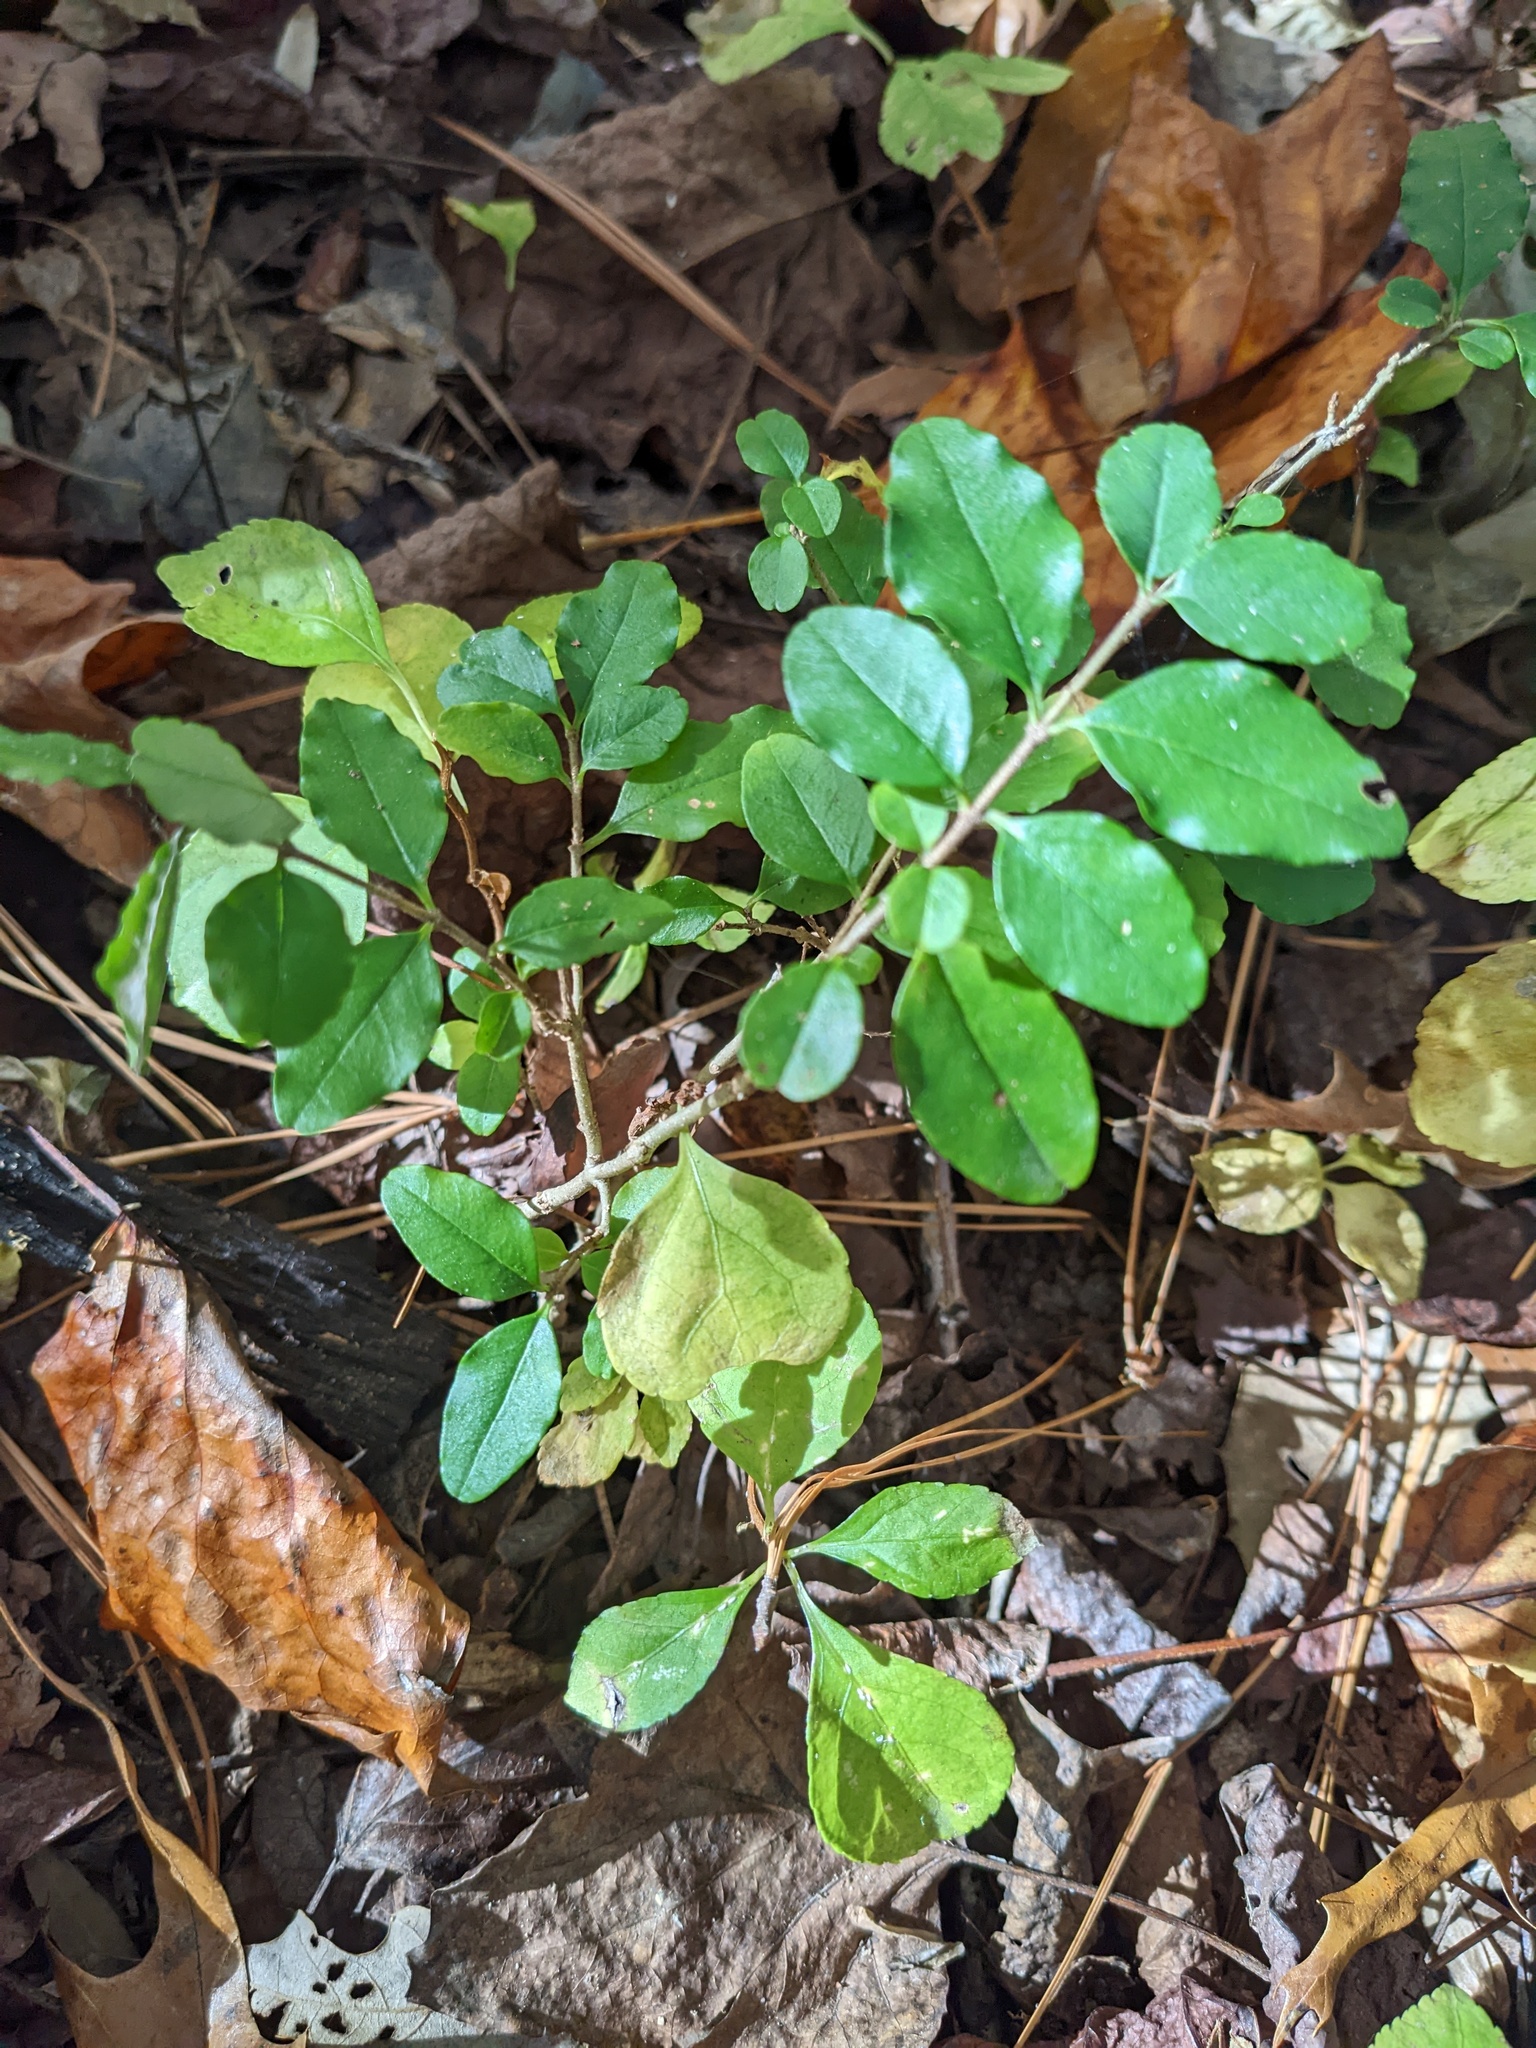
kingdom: Plantae
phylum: Tracheophyta
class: Magnoliopsida
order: Lamiales
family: Oleaceae
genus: Ligustrum
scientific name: Ligustrum sinense
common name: Chinese privet
